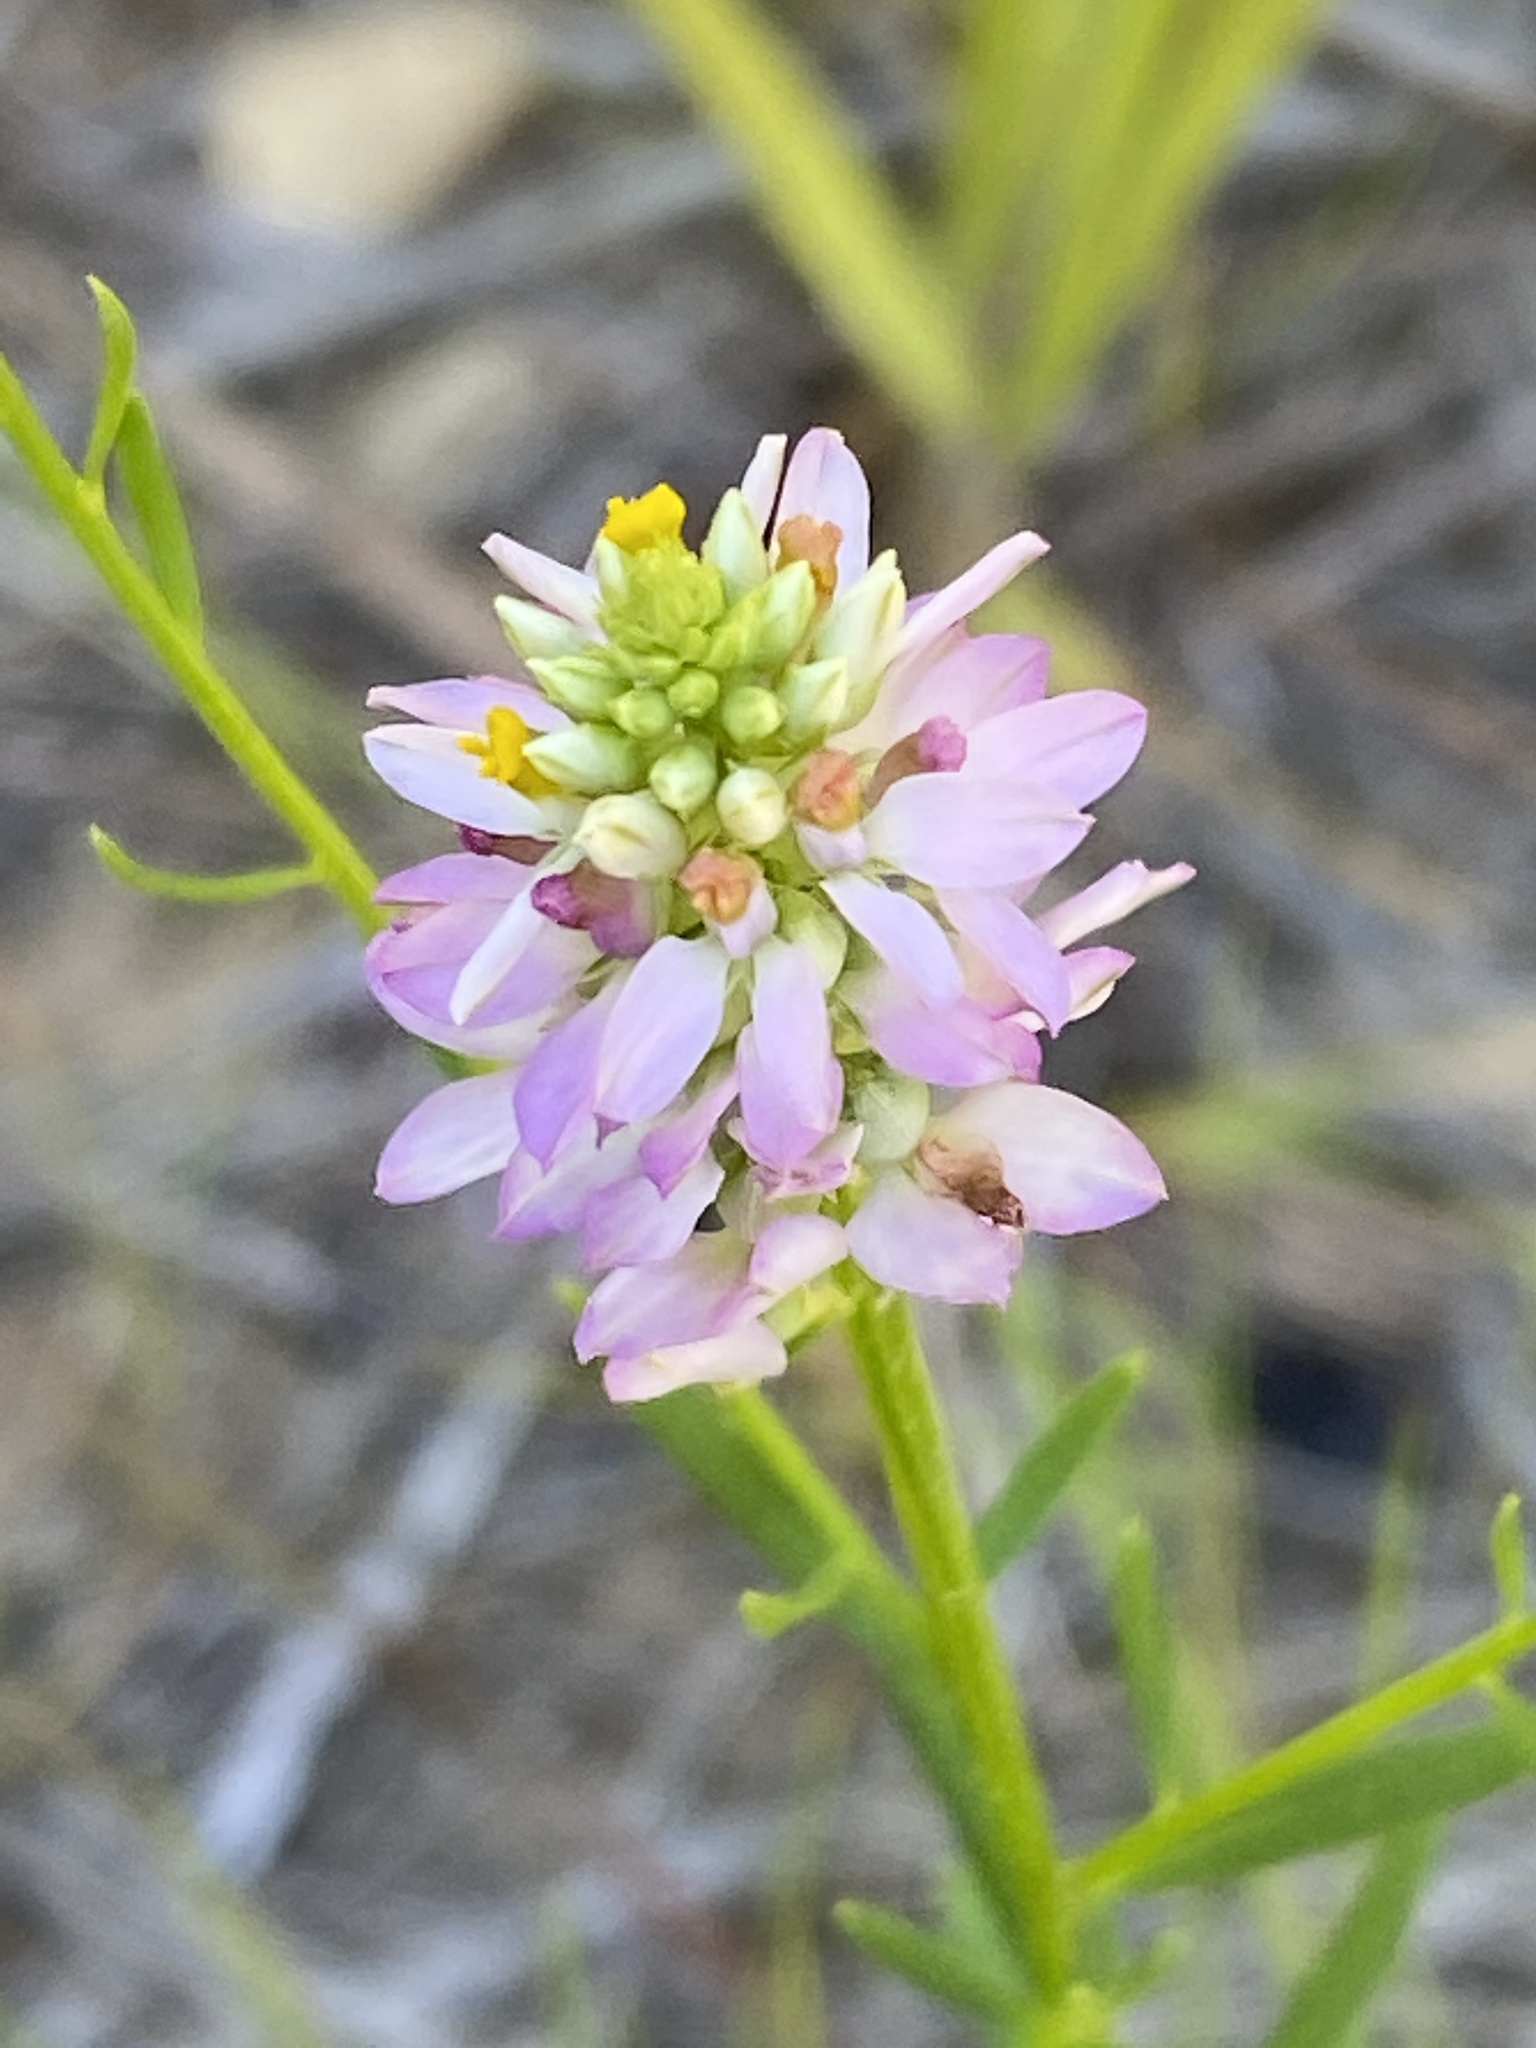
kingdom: Plantae
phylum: Tracheophyta
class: Magnoliopsida
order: Fabales
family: Polygalaceae
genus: Polygala
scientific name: Polygala curtissii
